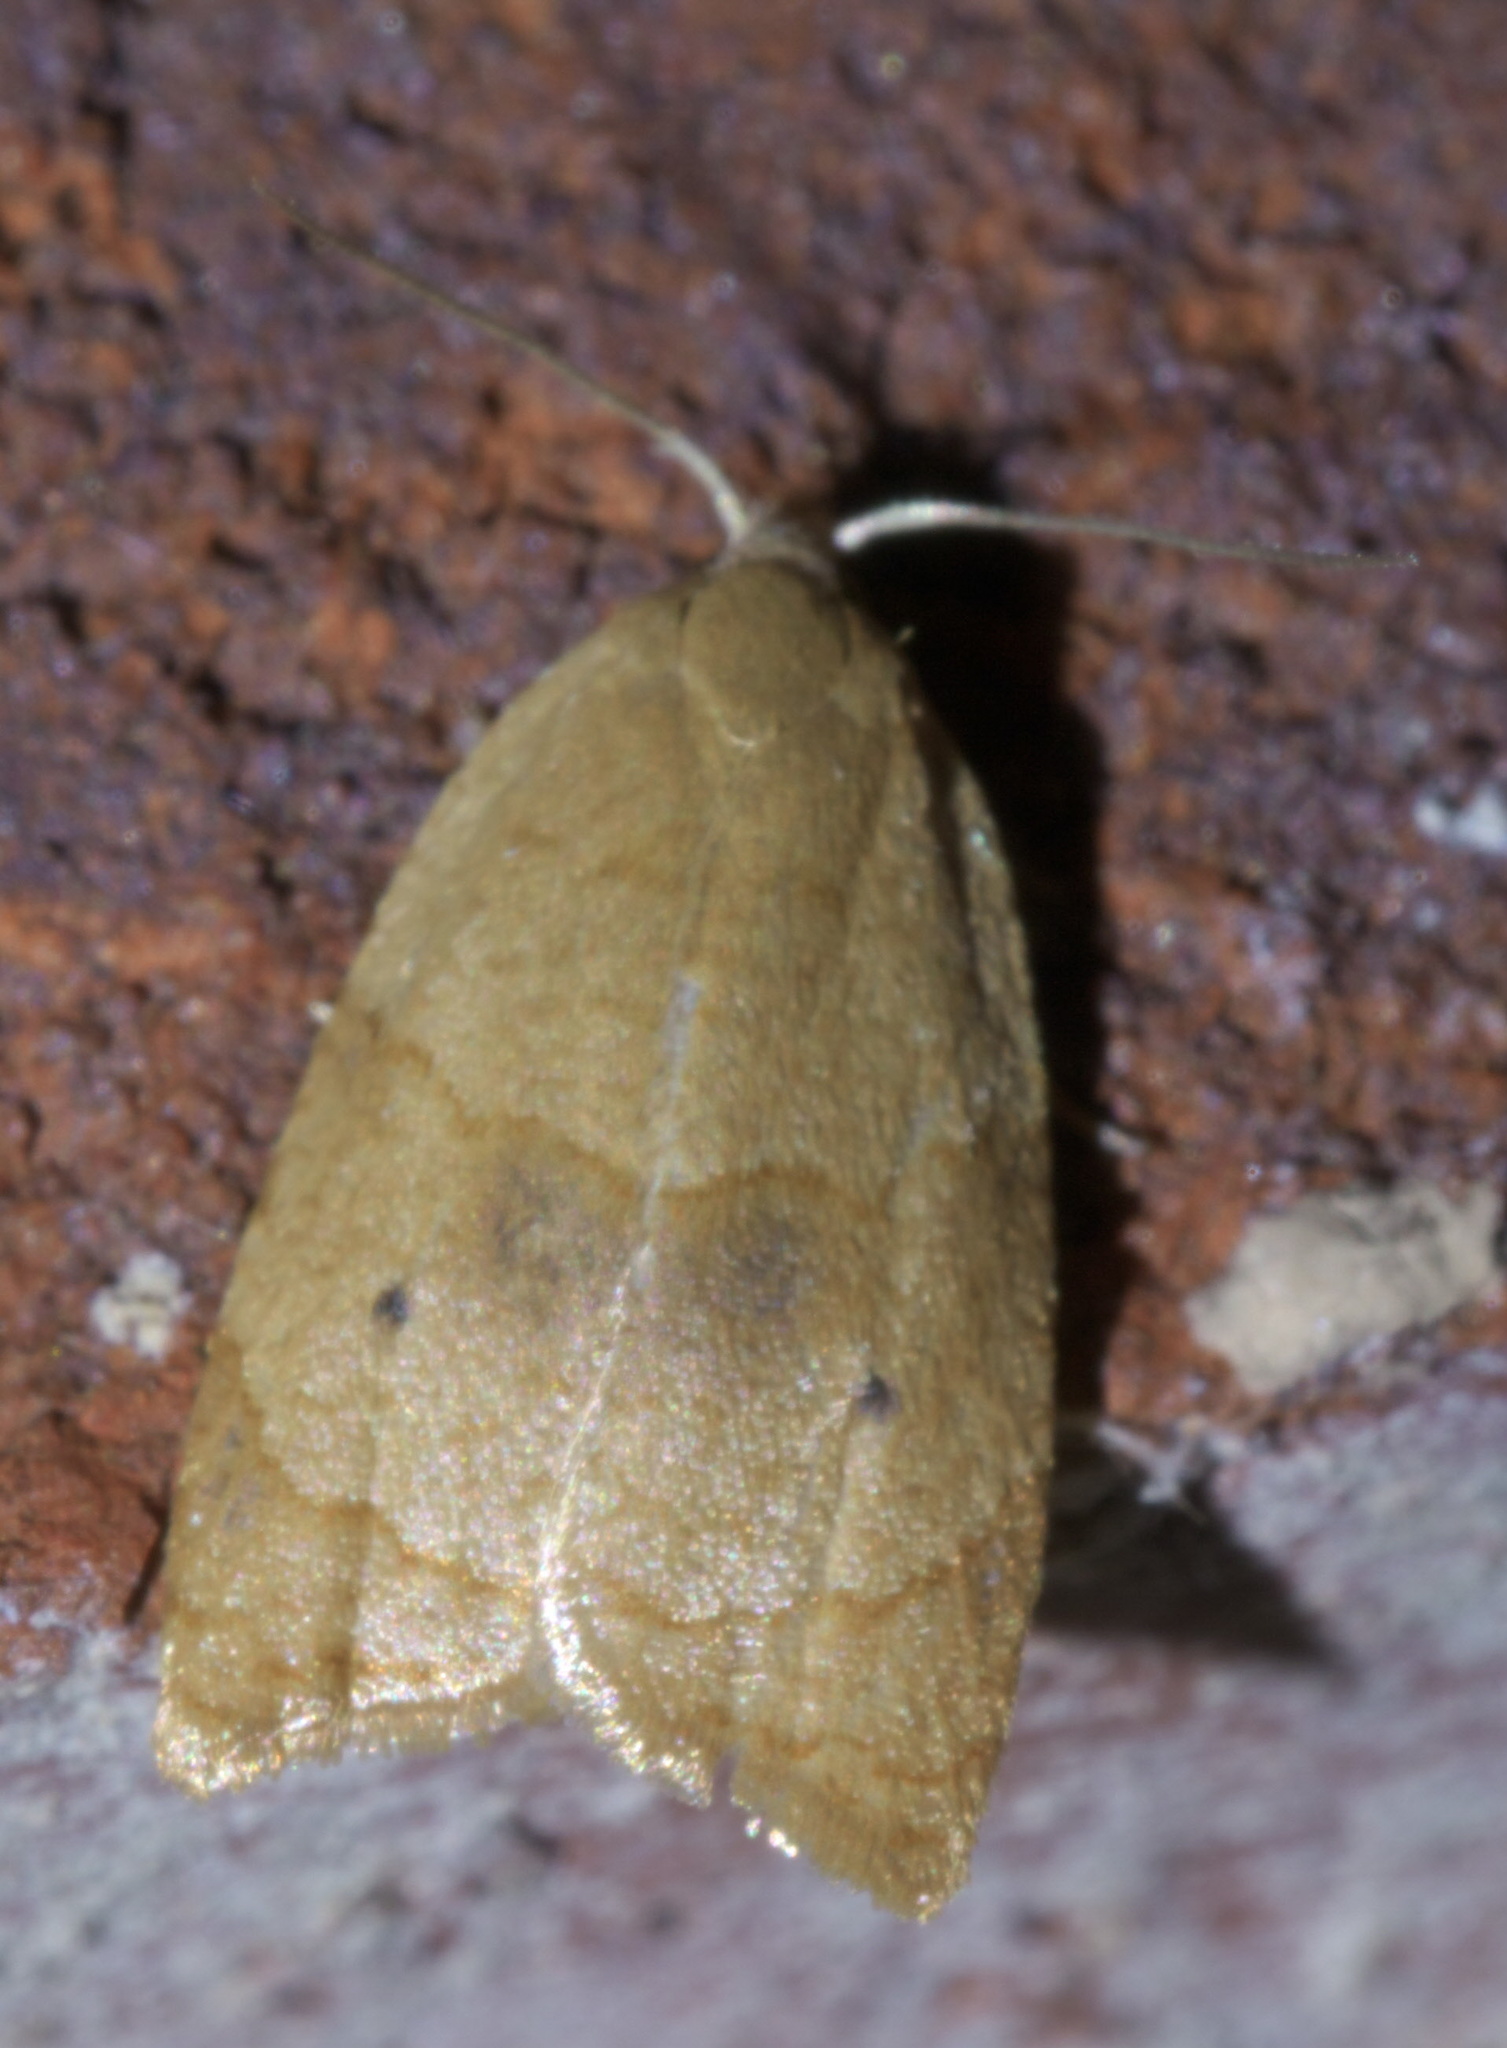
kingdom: Animalia
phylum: Arthropoda
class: Insecta
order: Lepidoptera
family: Tortricidae
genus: Coelostathma
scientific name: Coelostathma discopunctana
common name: Batman moth
